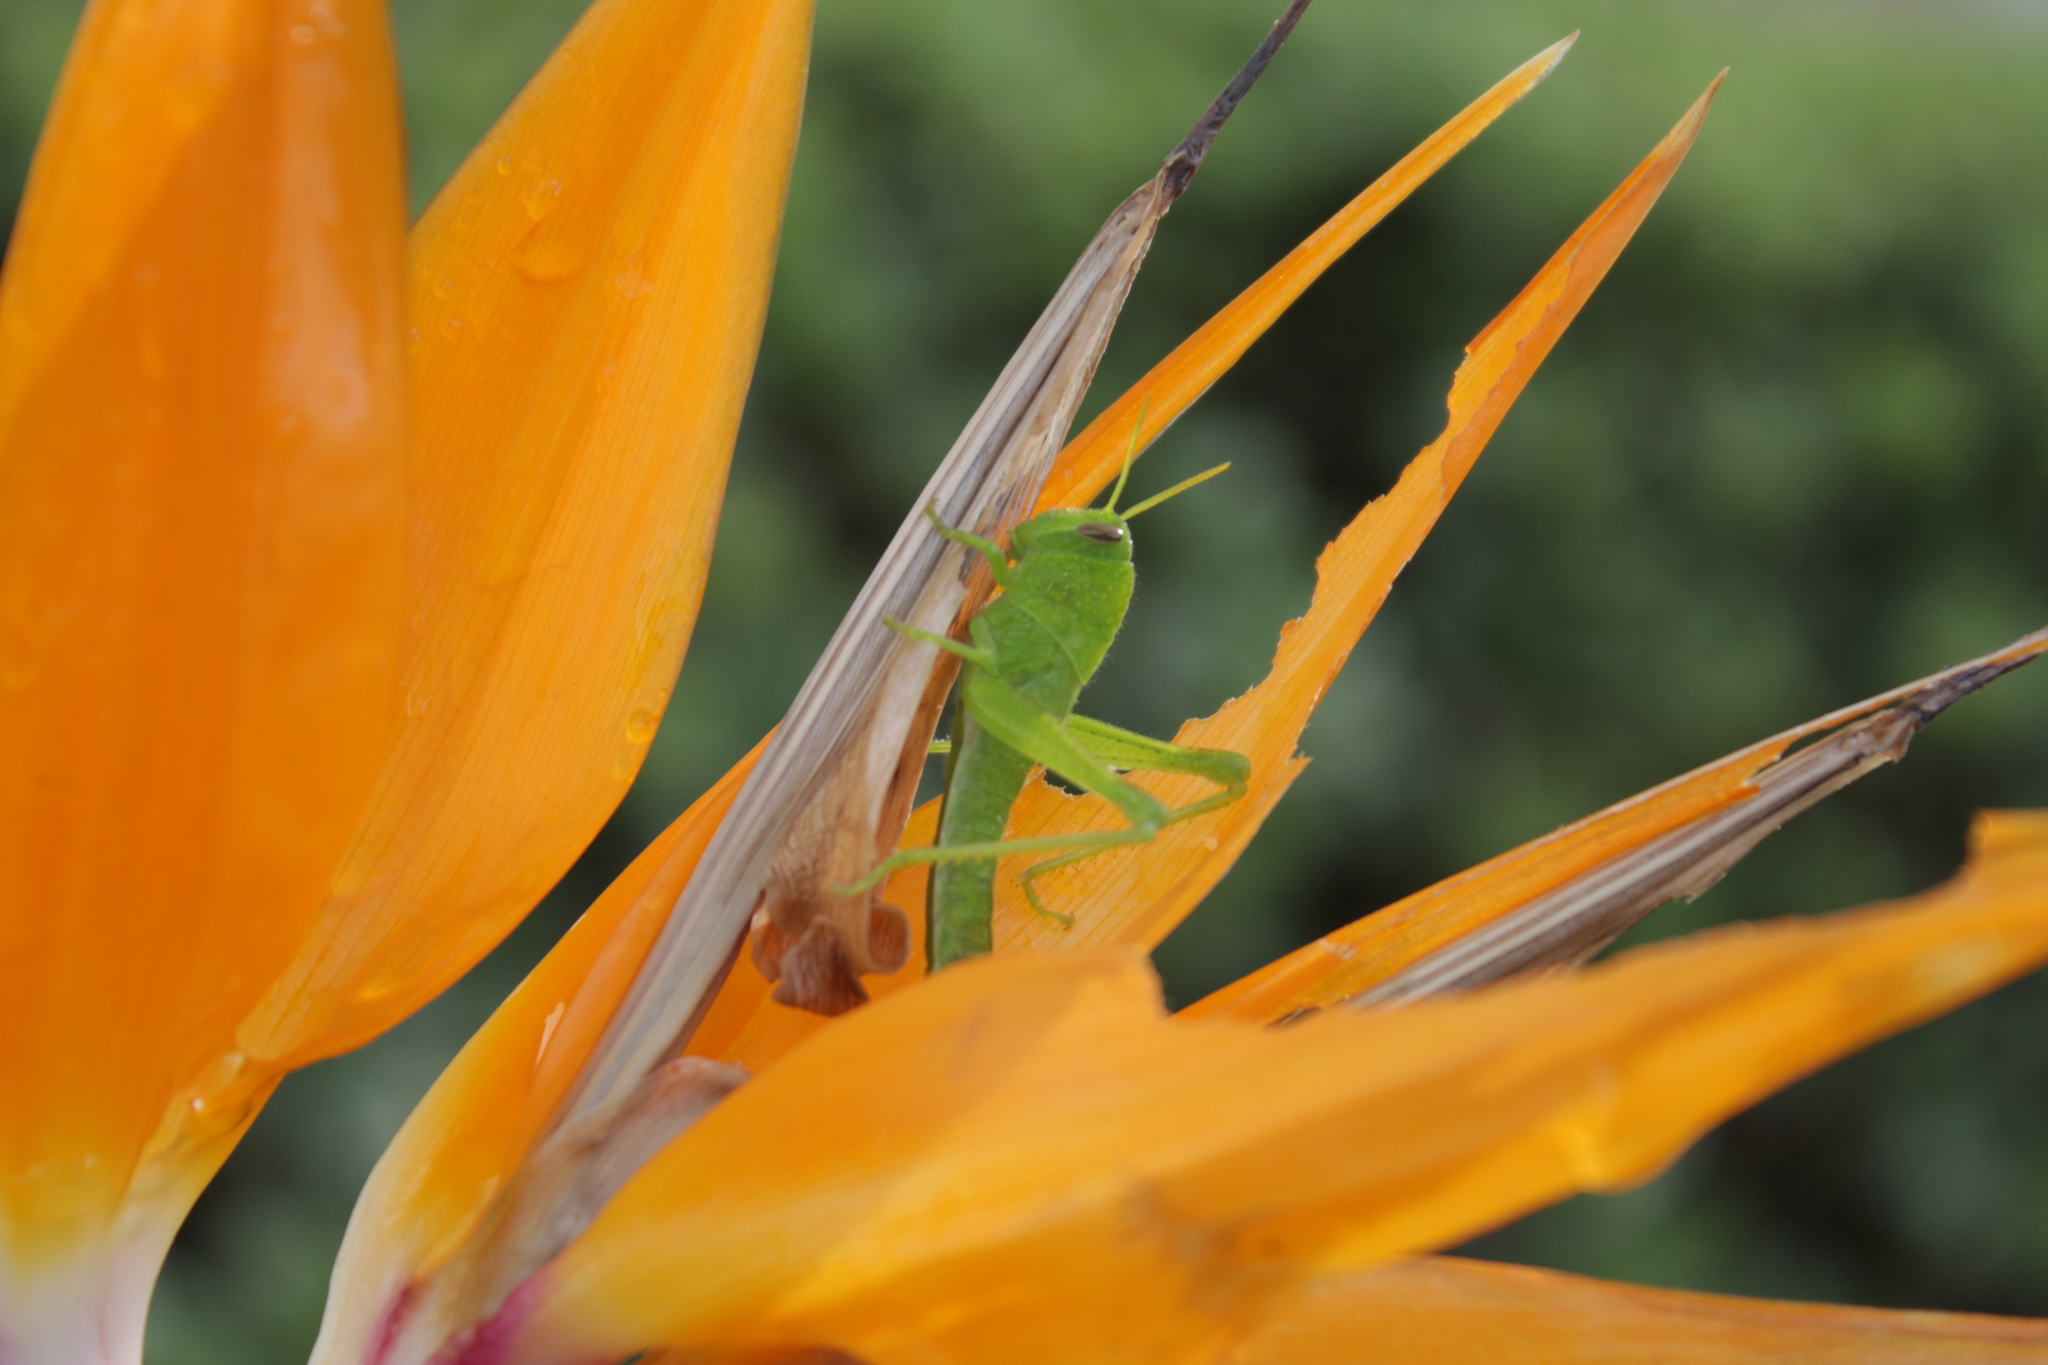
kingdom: Animalia
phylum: Arthropoda
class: Insecta
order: Orthoptera
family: Acrididae
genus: Schistocerca
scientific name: Schistocerca nitens
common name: Vagrant grasshopper
